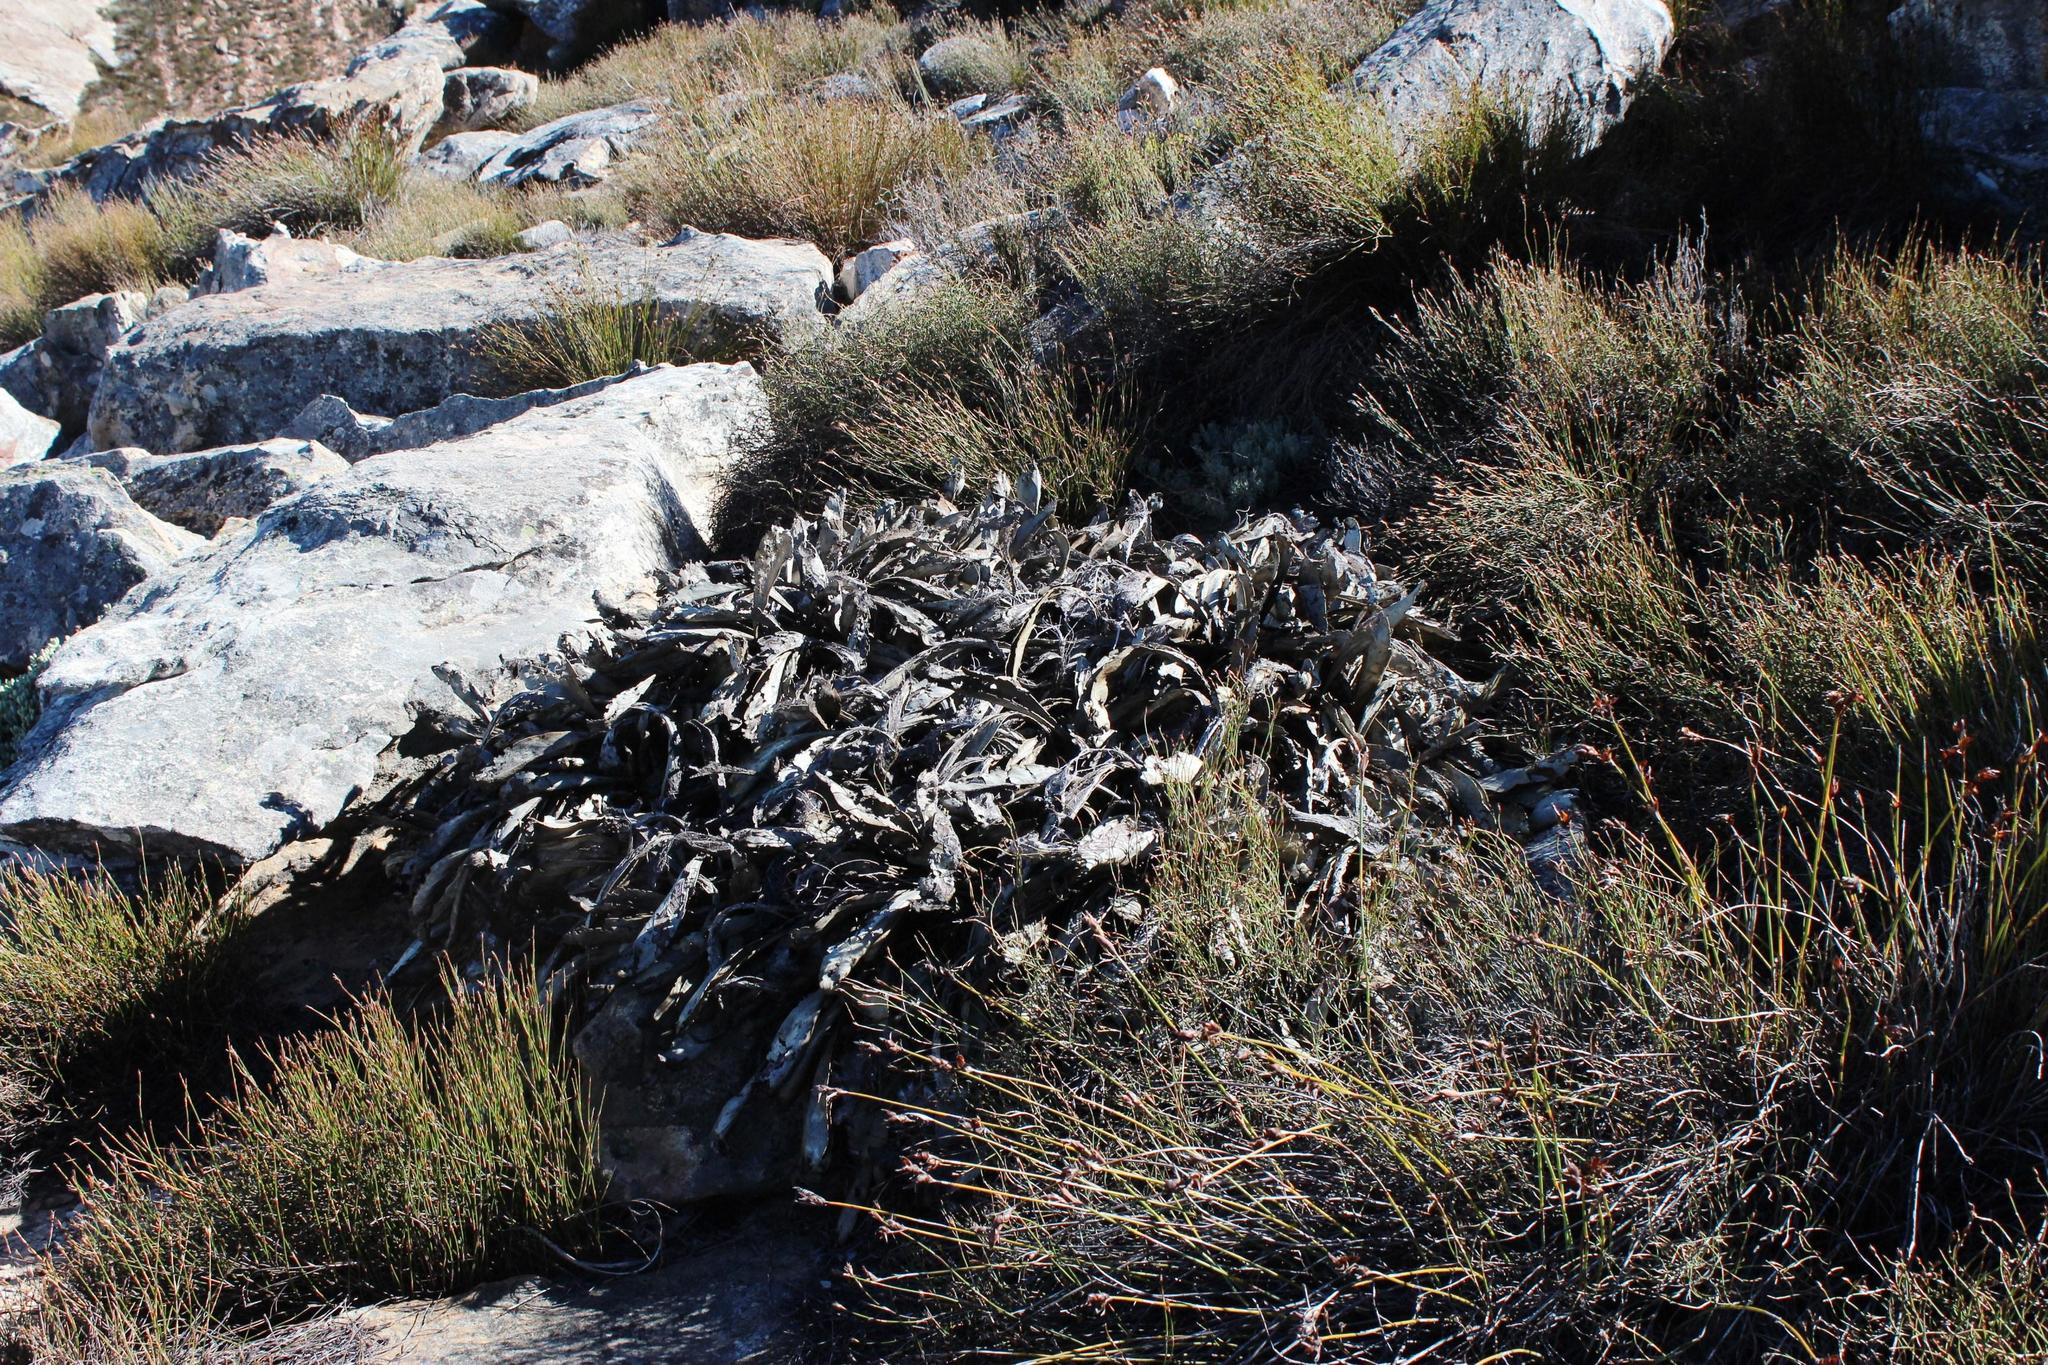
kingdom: Plantae
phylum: Tracheophyta
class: Magnoliopsida
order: Proteales
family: Proteaceae
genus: Protea
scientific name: Protea cryophila
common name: Snow protea
